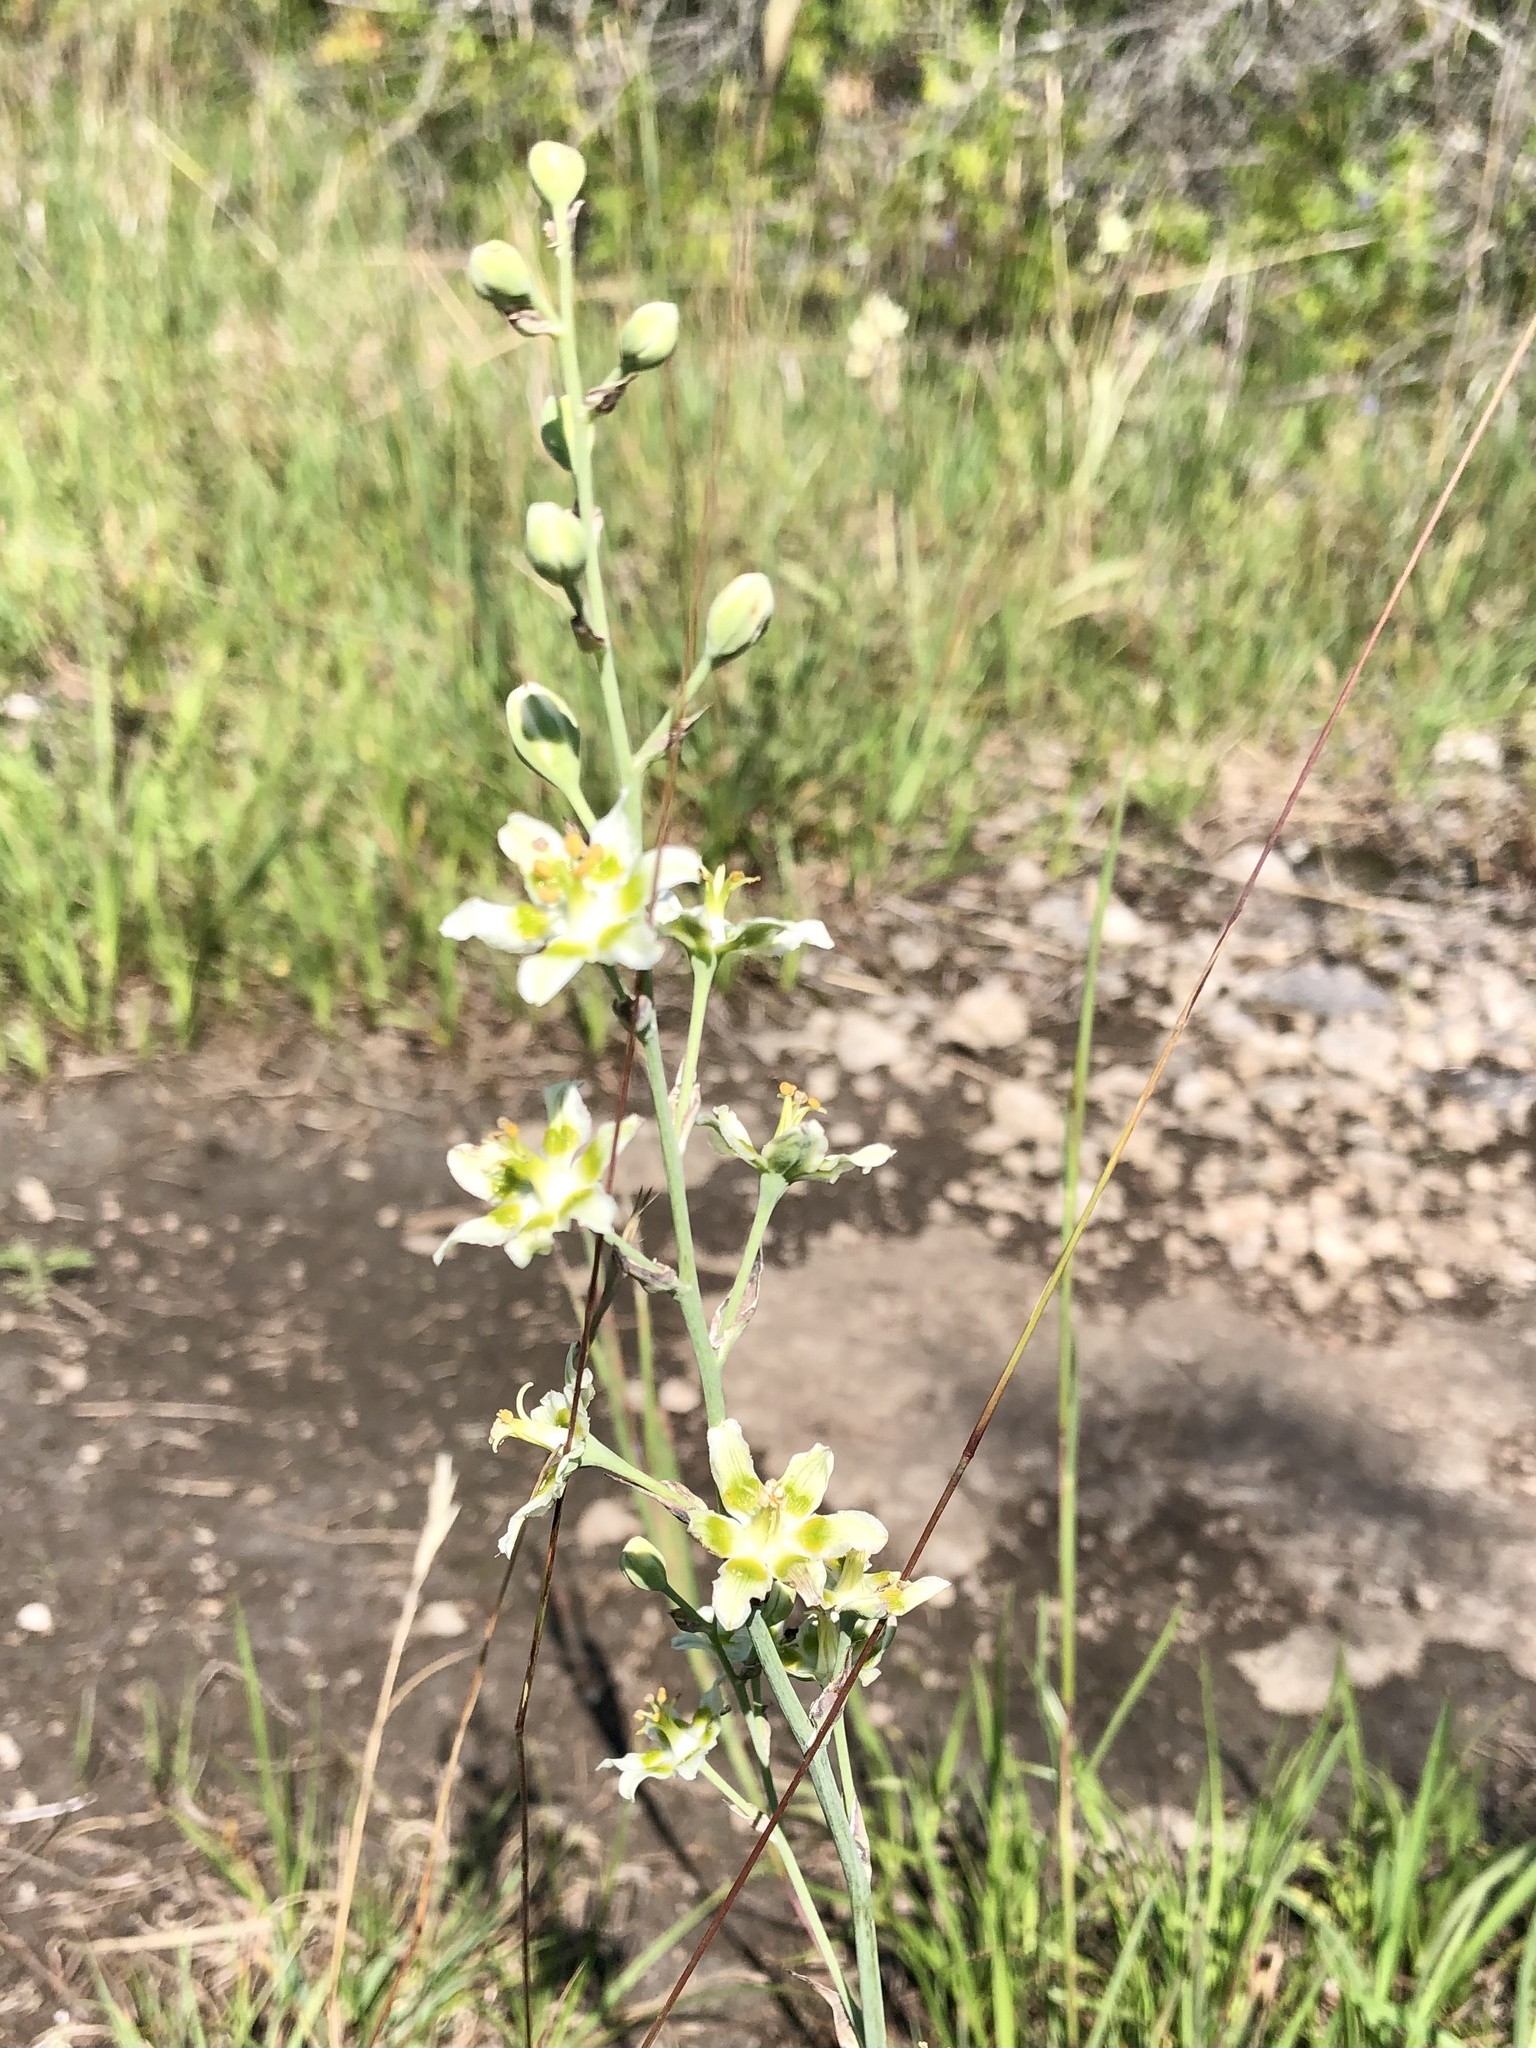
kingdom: Plantae
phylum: Tracheophyta
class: Liliopsida
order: Liliales
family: Melanthiaceae
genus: Anticlea
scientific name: Anticlea elegans
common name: Mountain death camas
